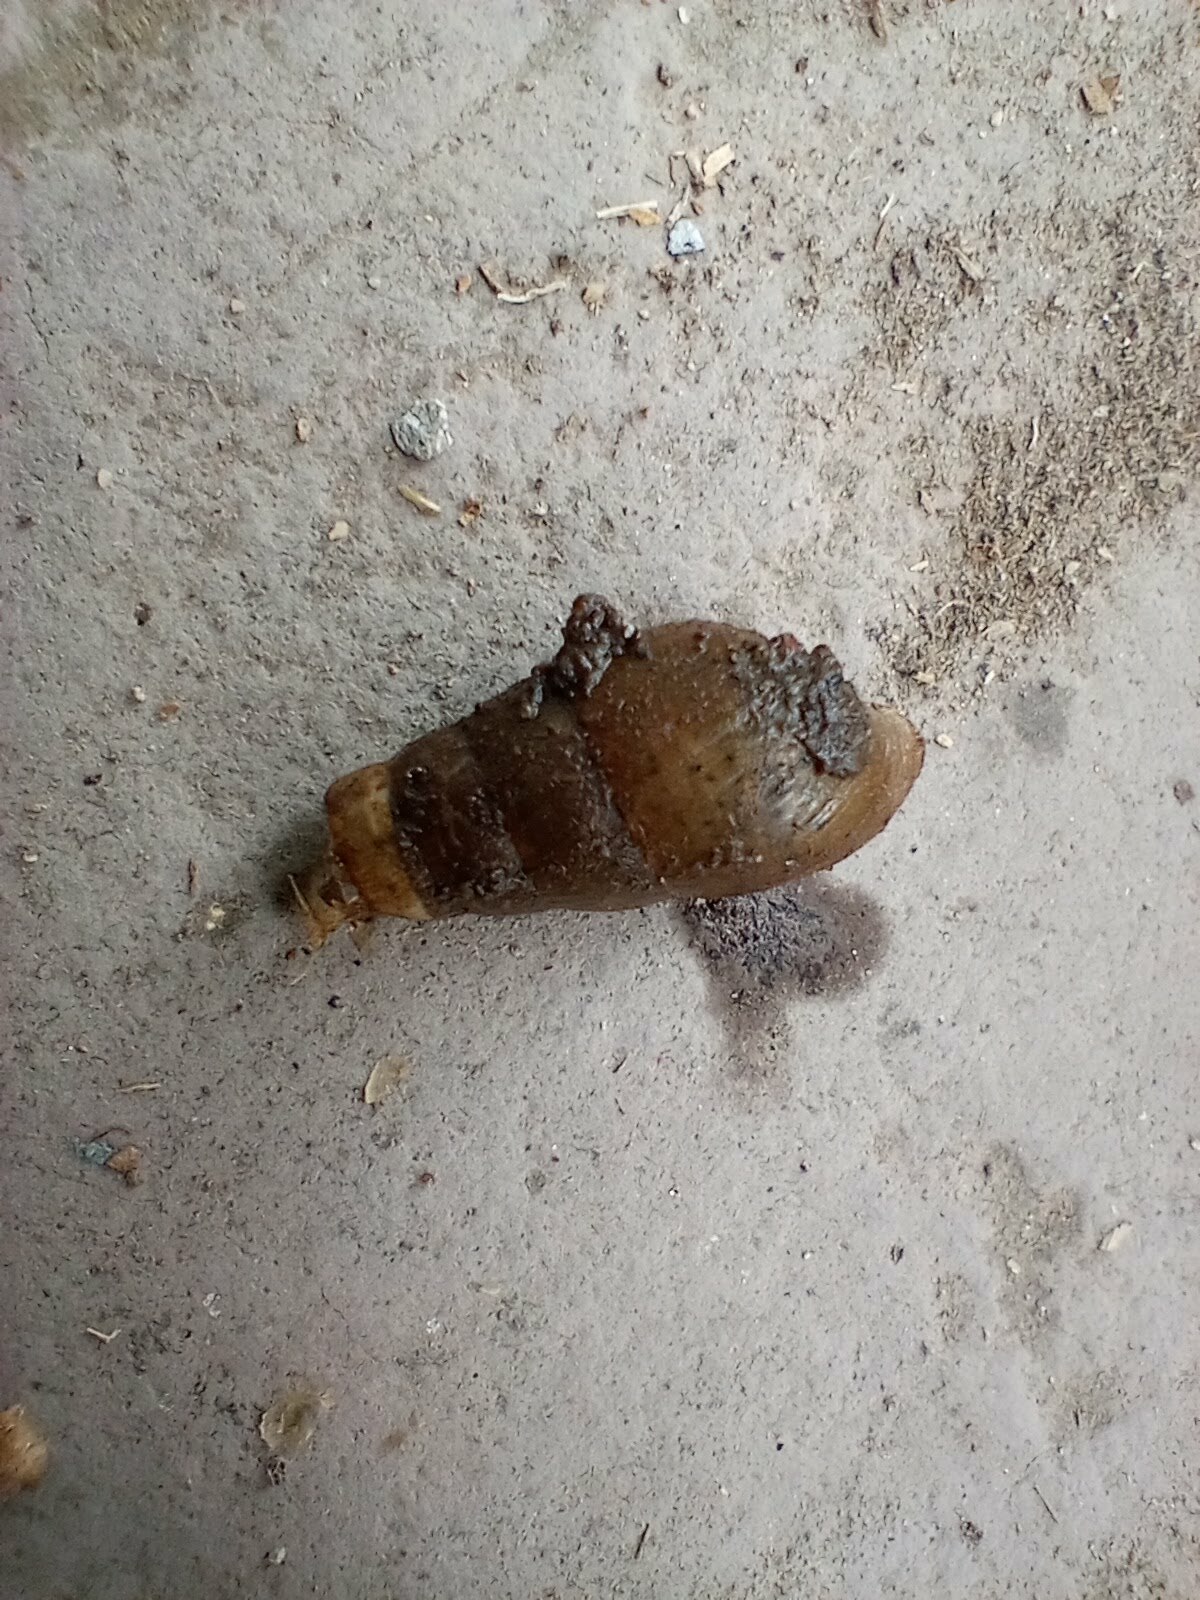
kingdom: Animalia
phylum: Mollusca
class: Gastropoda
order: Stylommatophora
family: Achatinidae
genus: Rumina
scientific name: Rumina decollata
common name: Decollate snail
